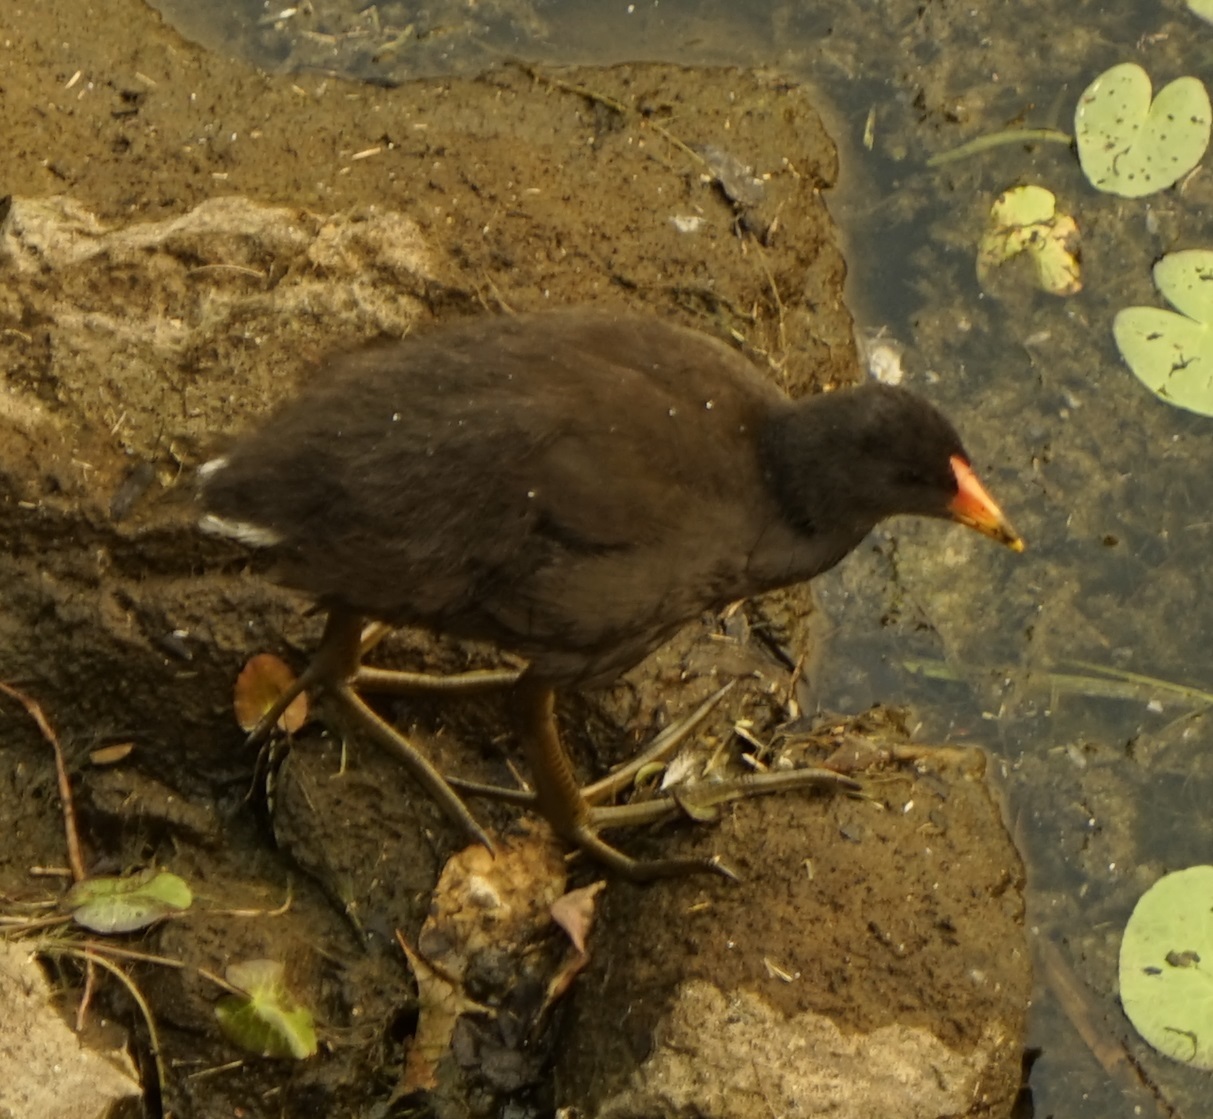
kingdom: Animalia
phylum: Chordata
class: Aves
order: Gruiformes
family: Rallidae
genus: Gallinula
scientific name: Gallinula tenebrosa
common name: Dusky moorhen
